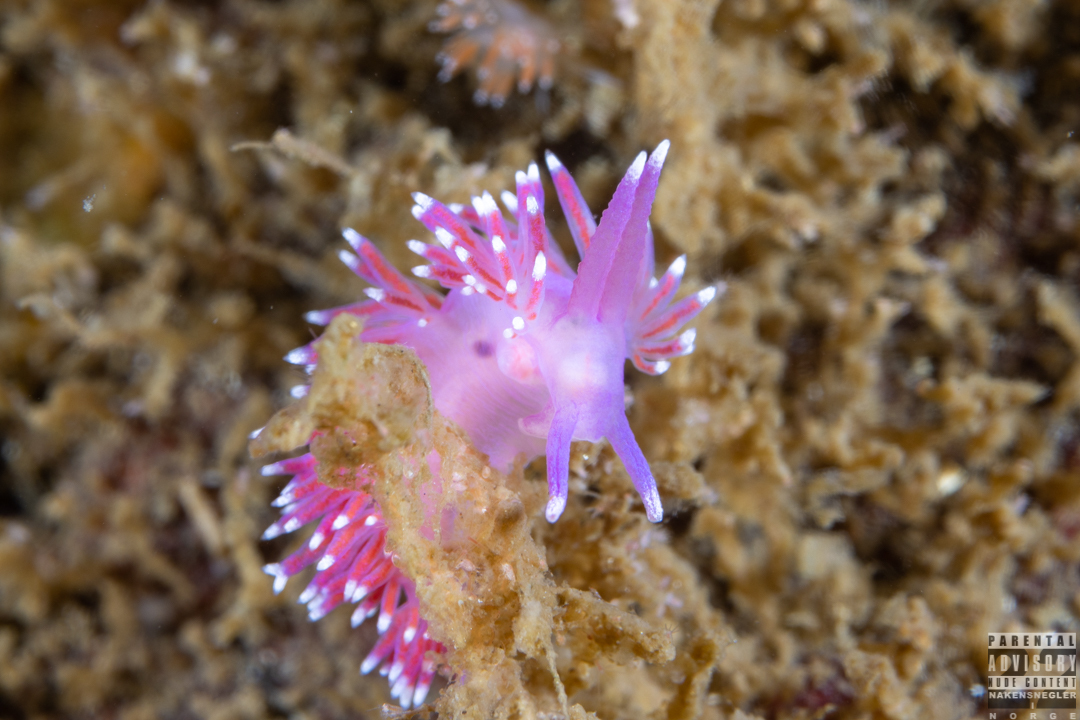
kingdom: Animalia
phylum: Mollusca
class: Gastropoda
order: Nudibranchia
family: Flabellinidae
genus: Edmundsella
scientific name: Edmundsella pedata
